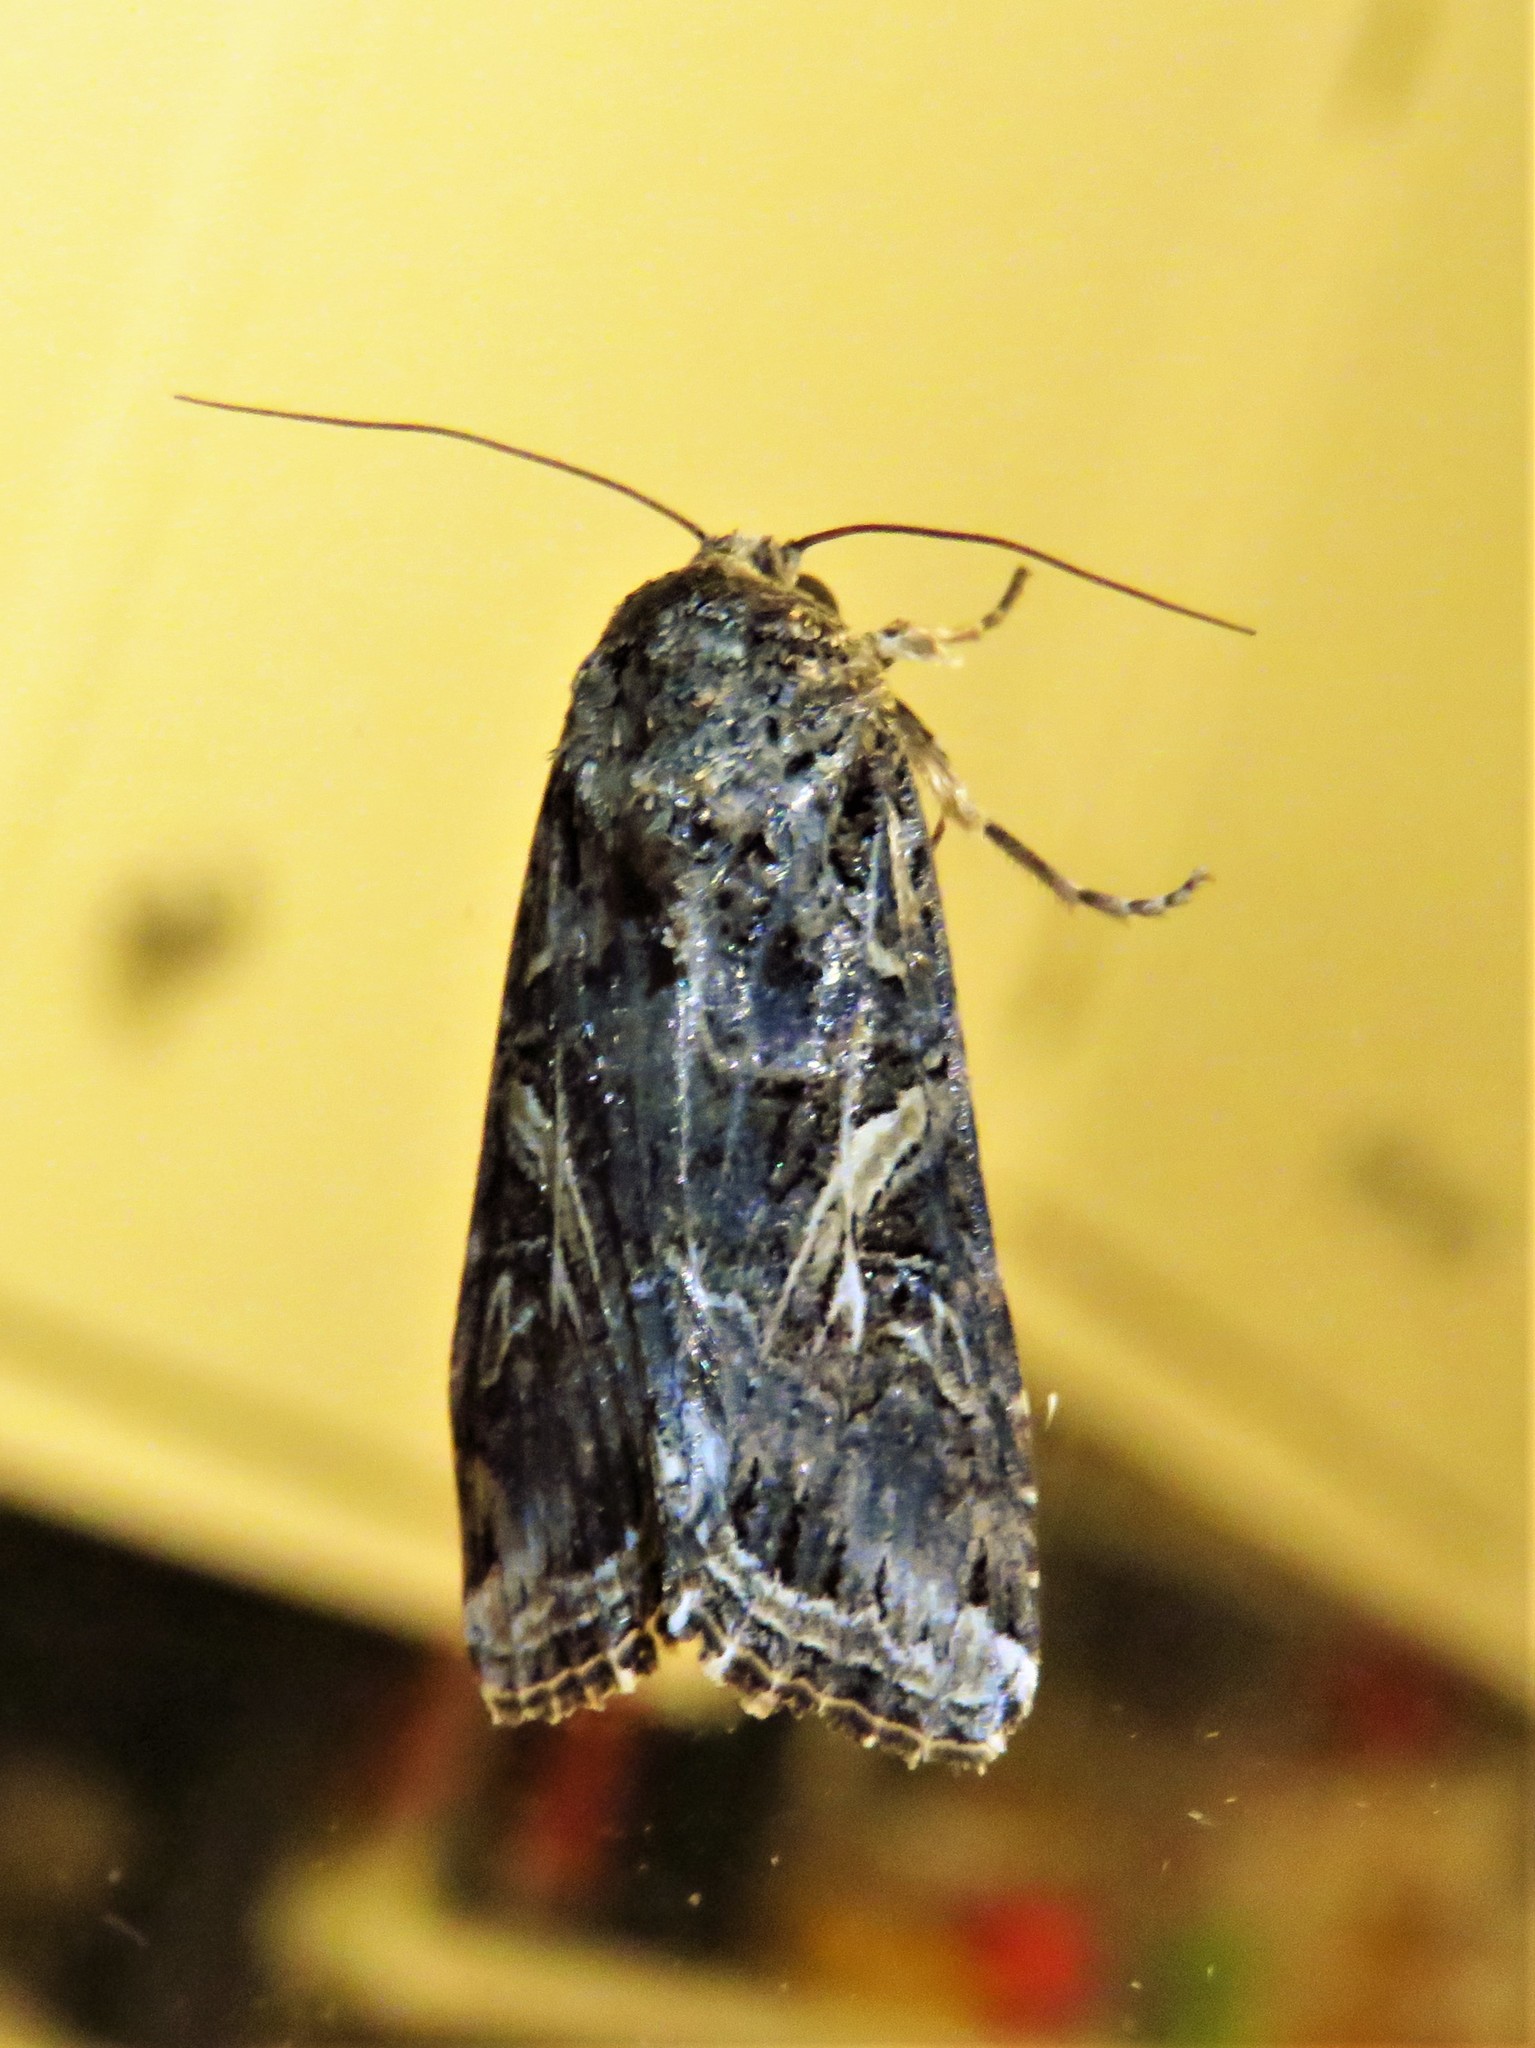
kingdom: Animalia
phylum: Arthropoda
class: Insecta
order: Lepidoptera
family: Noctuidae
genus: Spodoptera
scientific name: Spodoptera ornithogalli
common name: Yellow-striped armyworm
